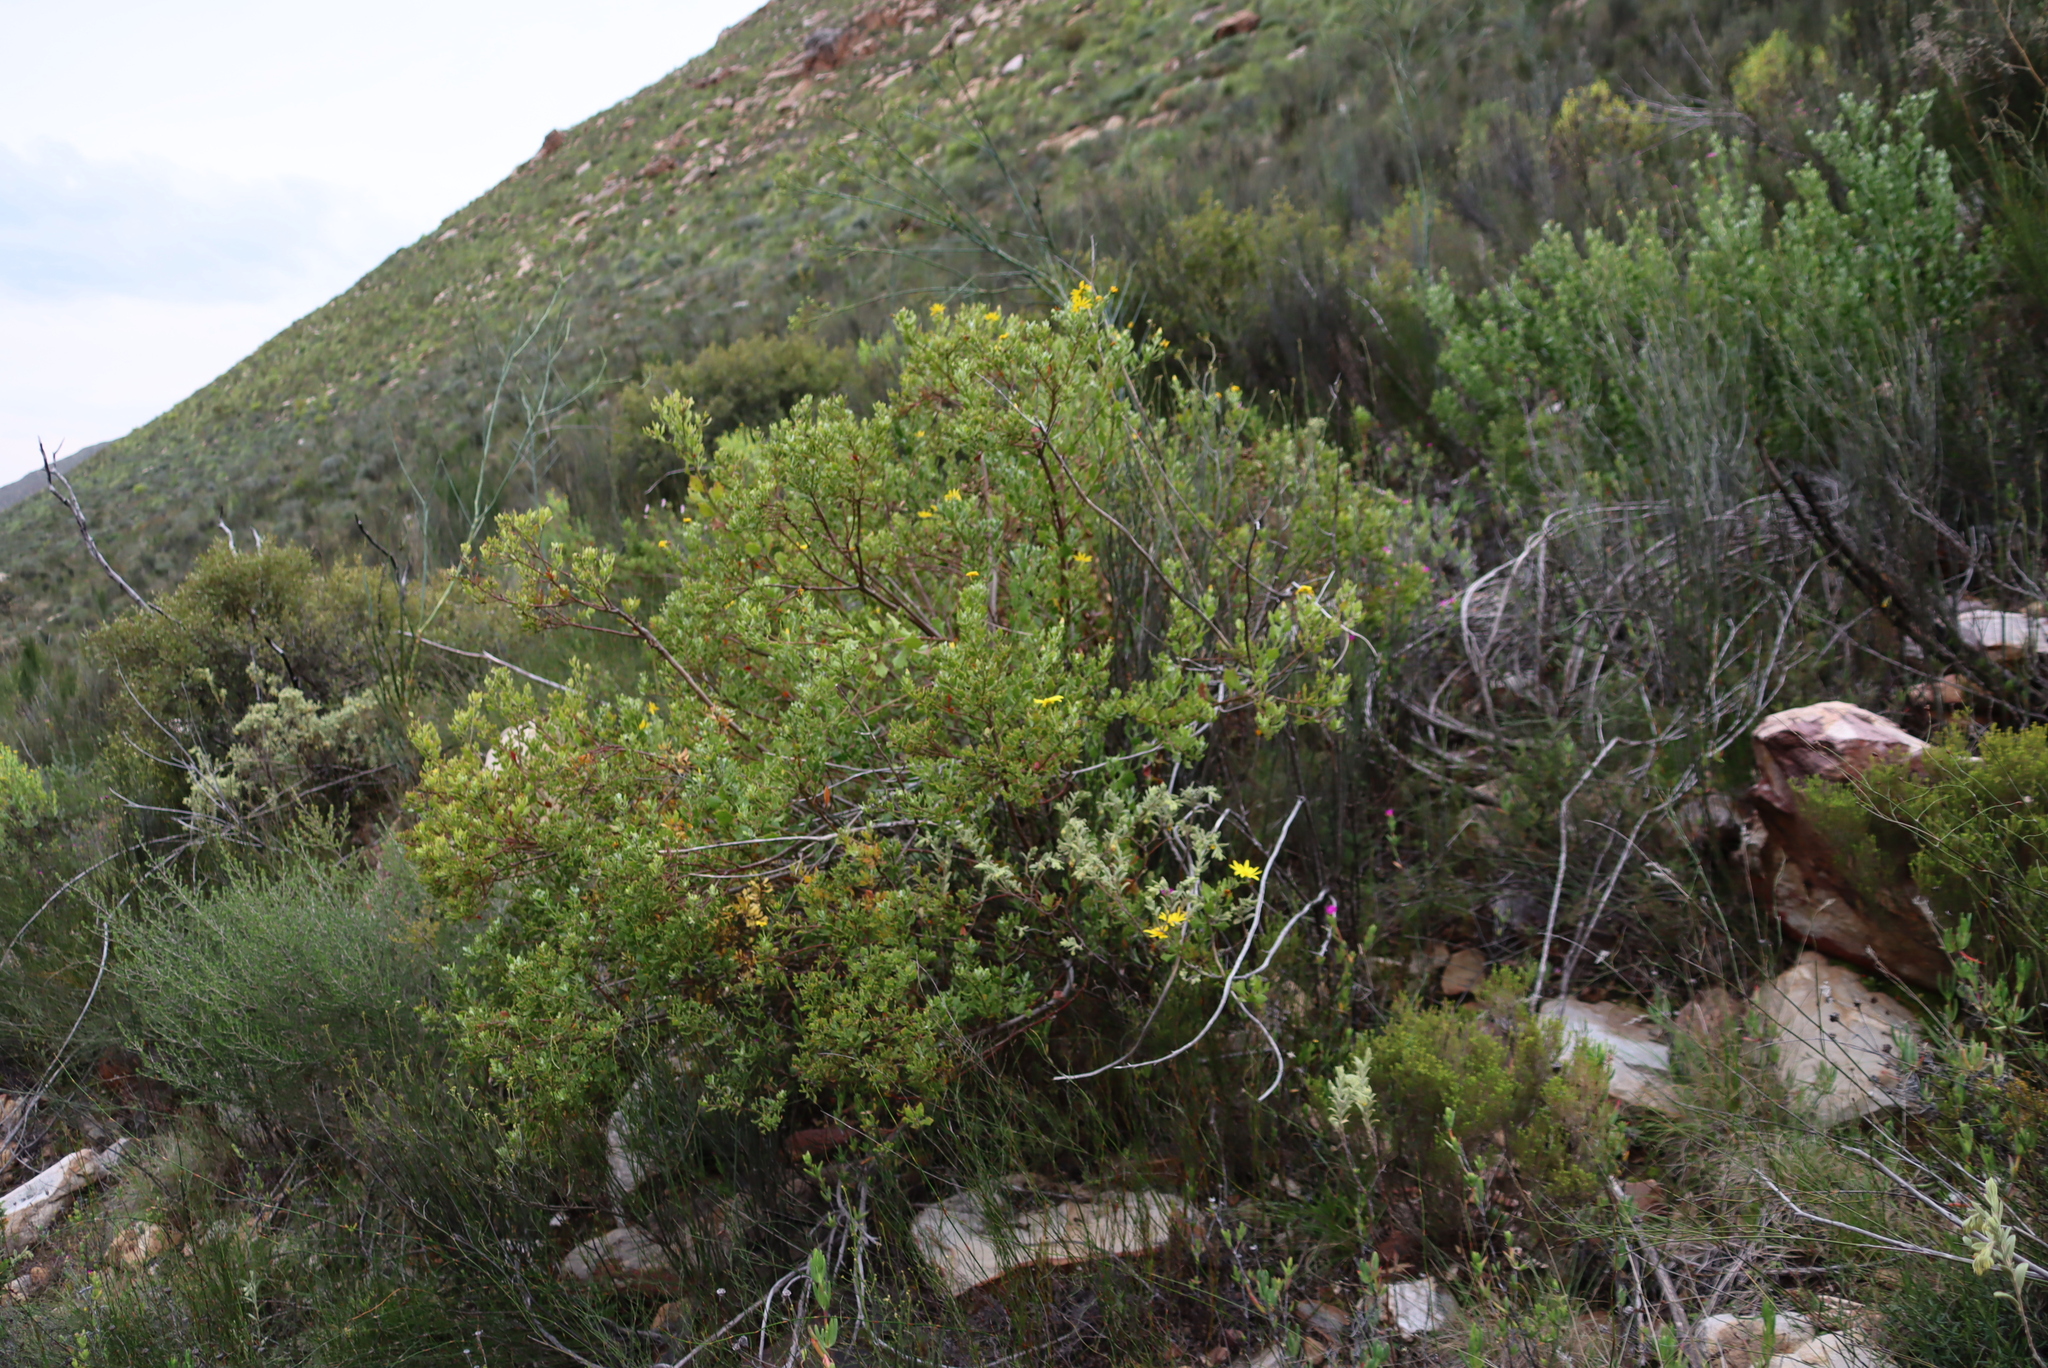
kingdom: Plantae
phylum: Tracheophyta
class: Magnoliopsida
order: Asterales
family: Asteraceae
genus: Osteospermum
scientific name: Osteospermum moniliferum
